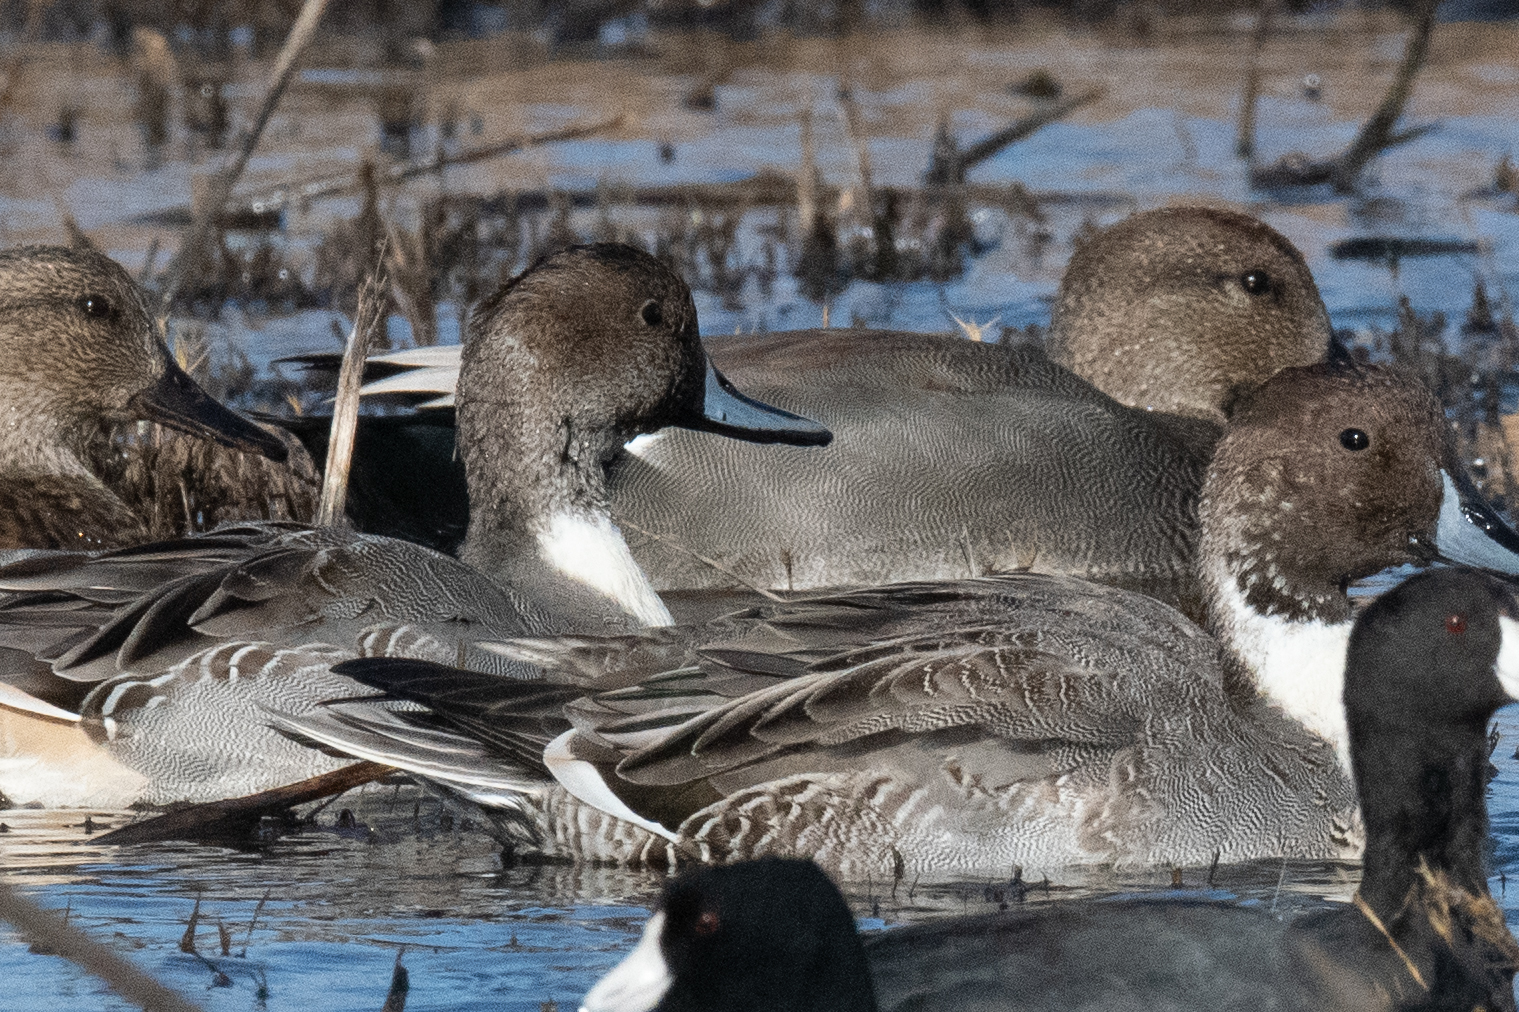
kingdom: Animalia
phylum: Chordata
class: Aves
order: Anseriformes
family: Anatidae
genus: Anas
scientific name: Anas acuta
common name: Northern pintail
